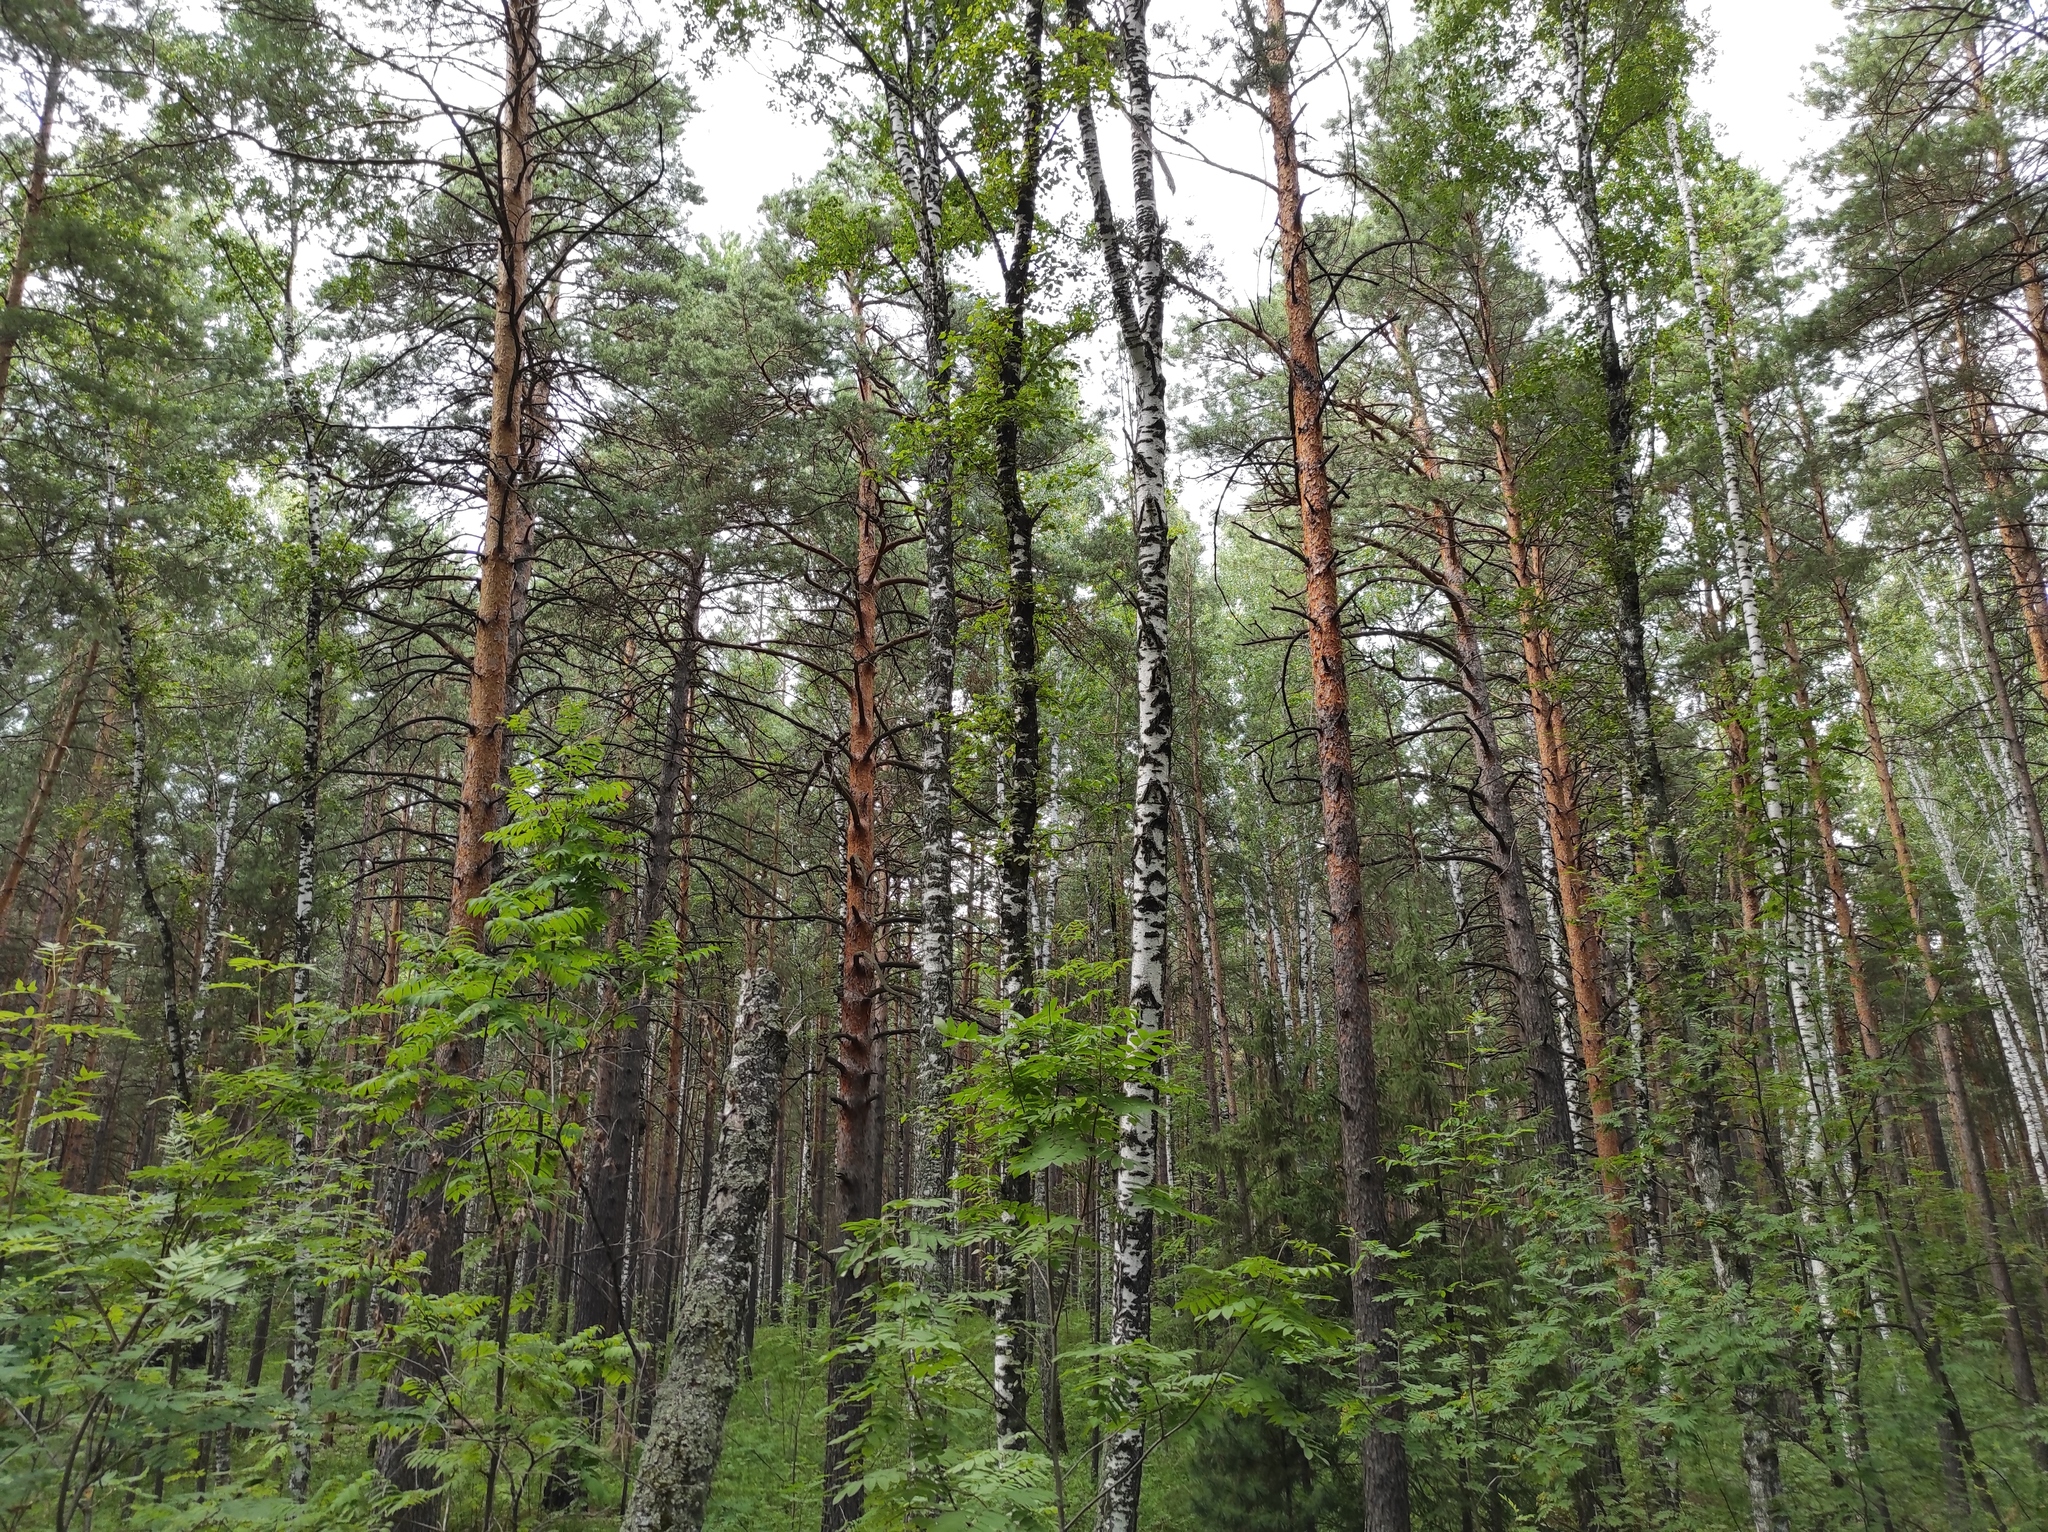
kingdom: Plantae
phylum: Tracheophyta
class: Pinopsida
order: Pinales
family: Pinaceae
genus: Pinus
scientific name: Pinus sylvestris
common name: Scots pine
